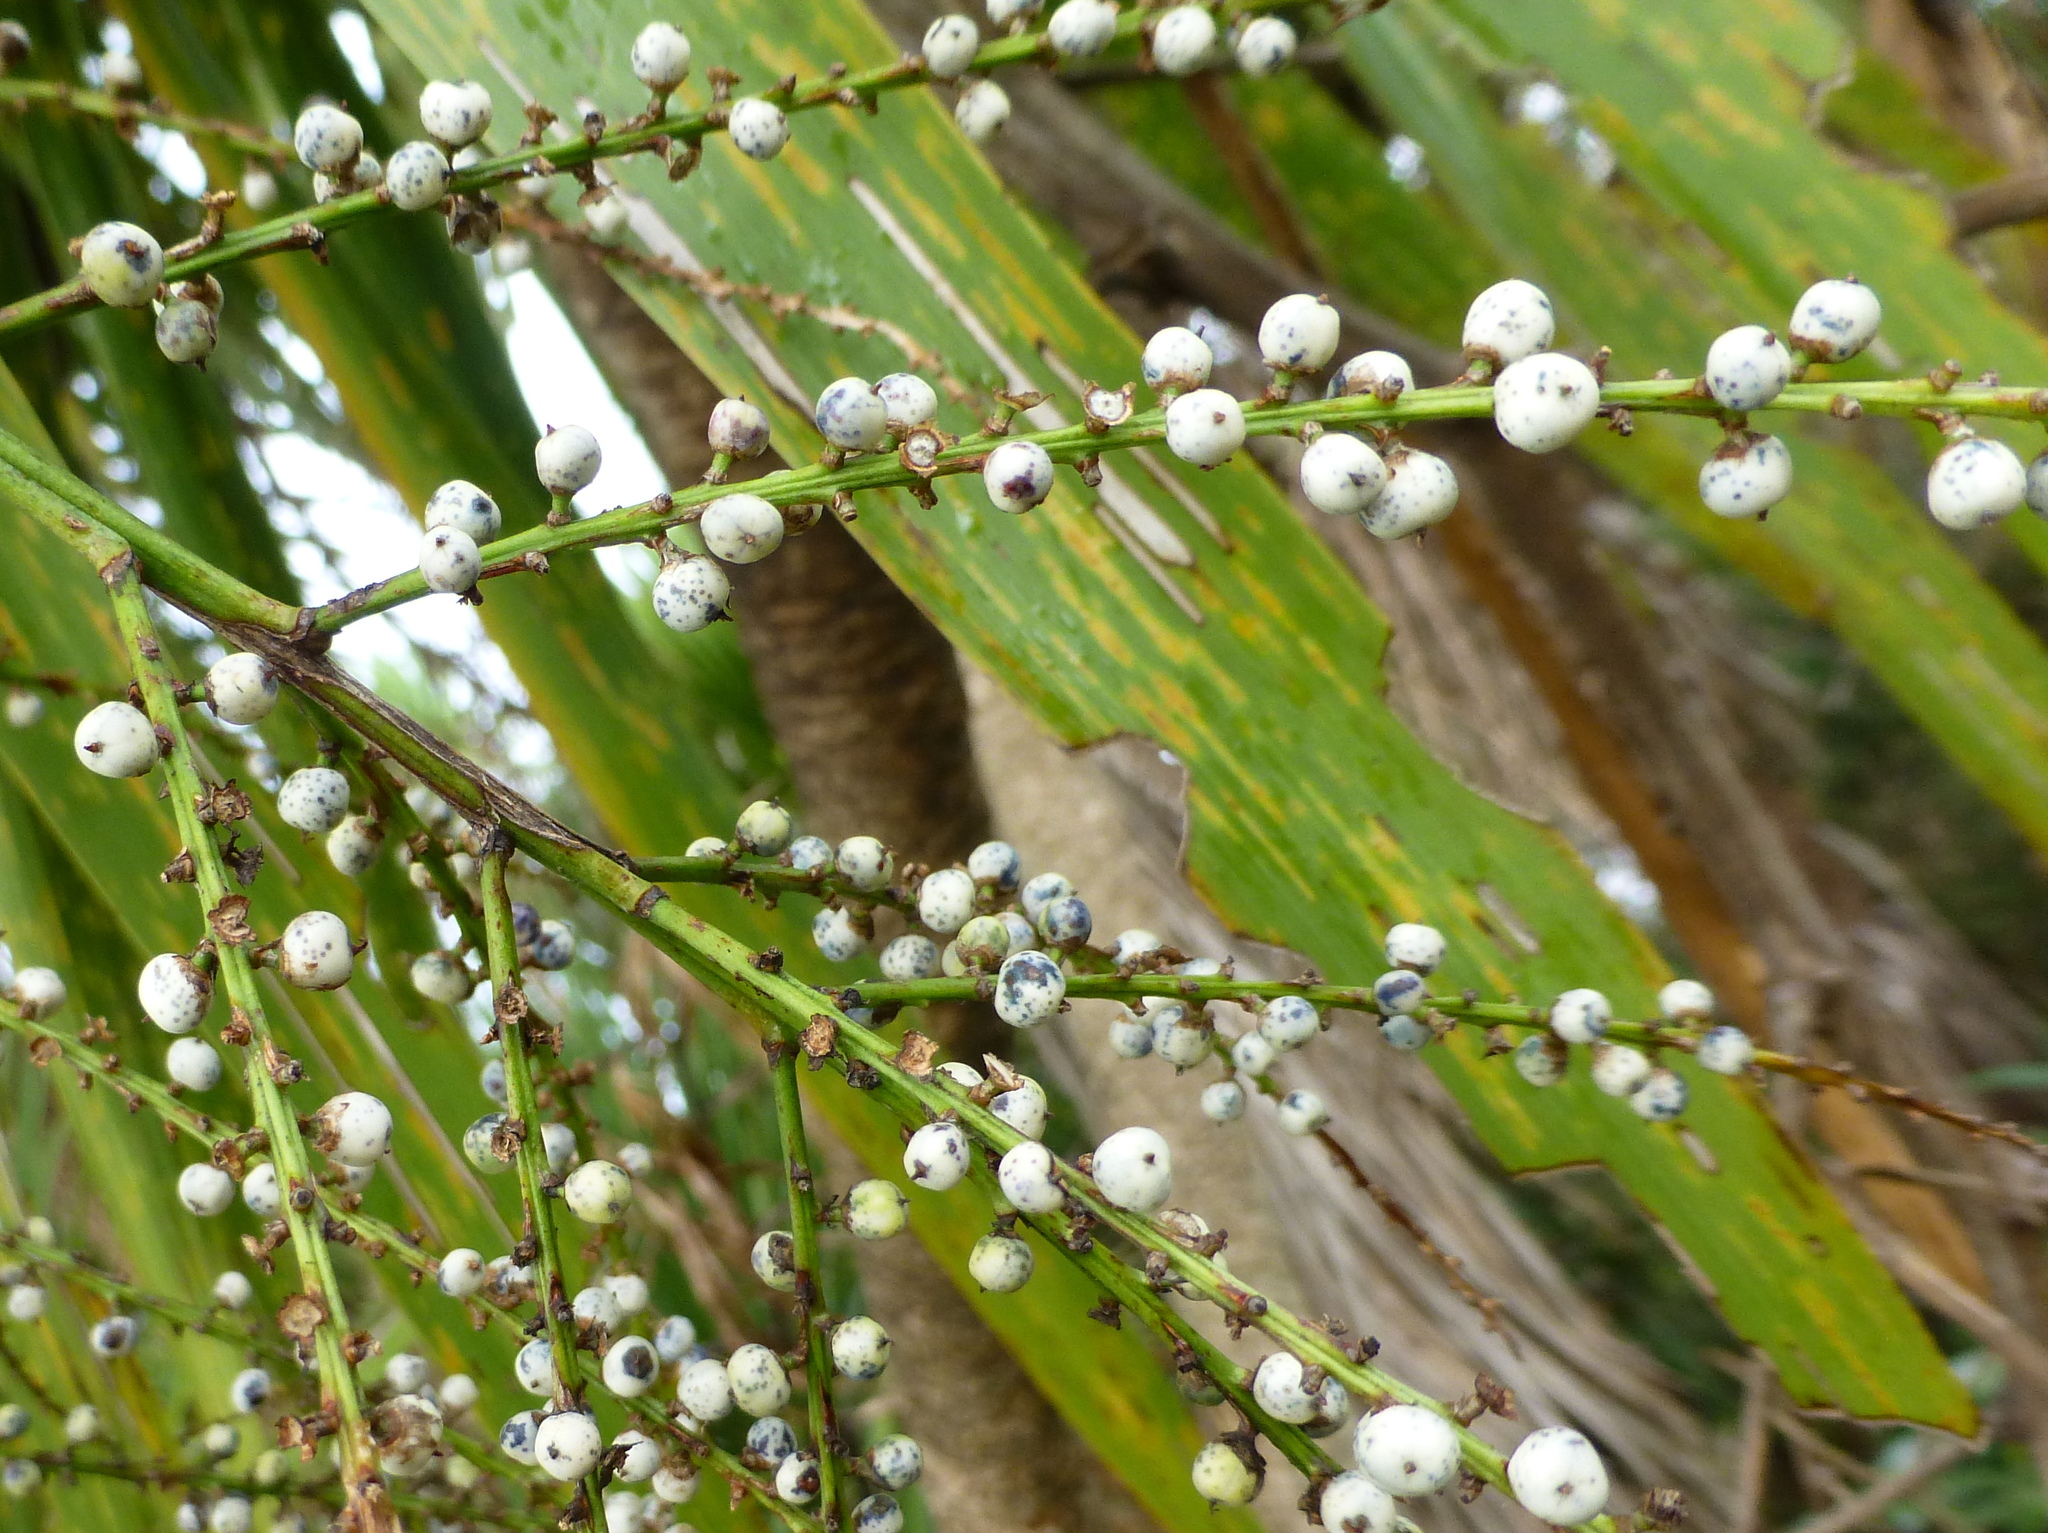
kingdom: Plantae
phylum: Tracheophyta
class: Liliopsida
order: Asparagales
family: Asparagaceae
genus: Cordyline
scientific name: Cordyline australis
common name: Cabbage-palm
